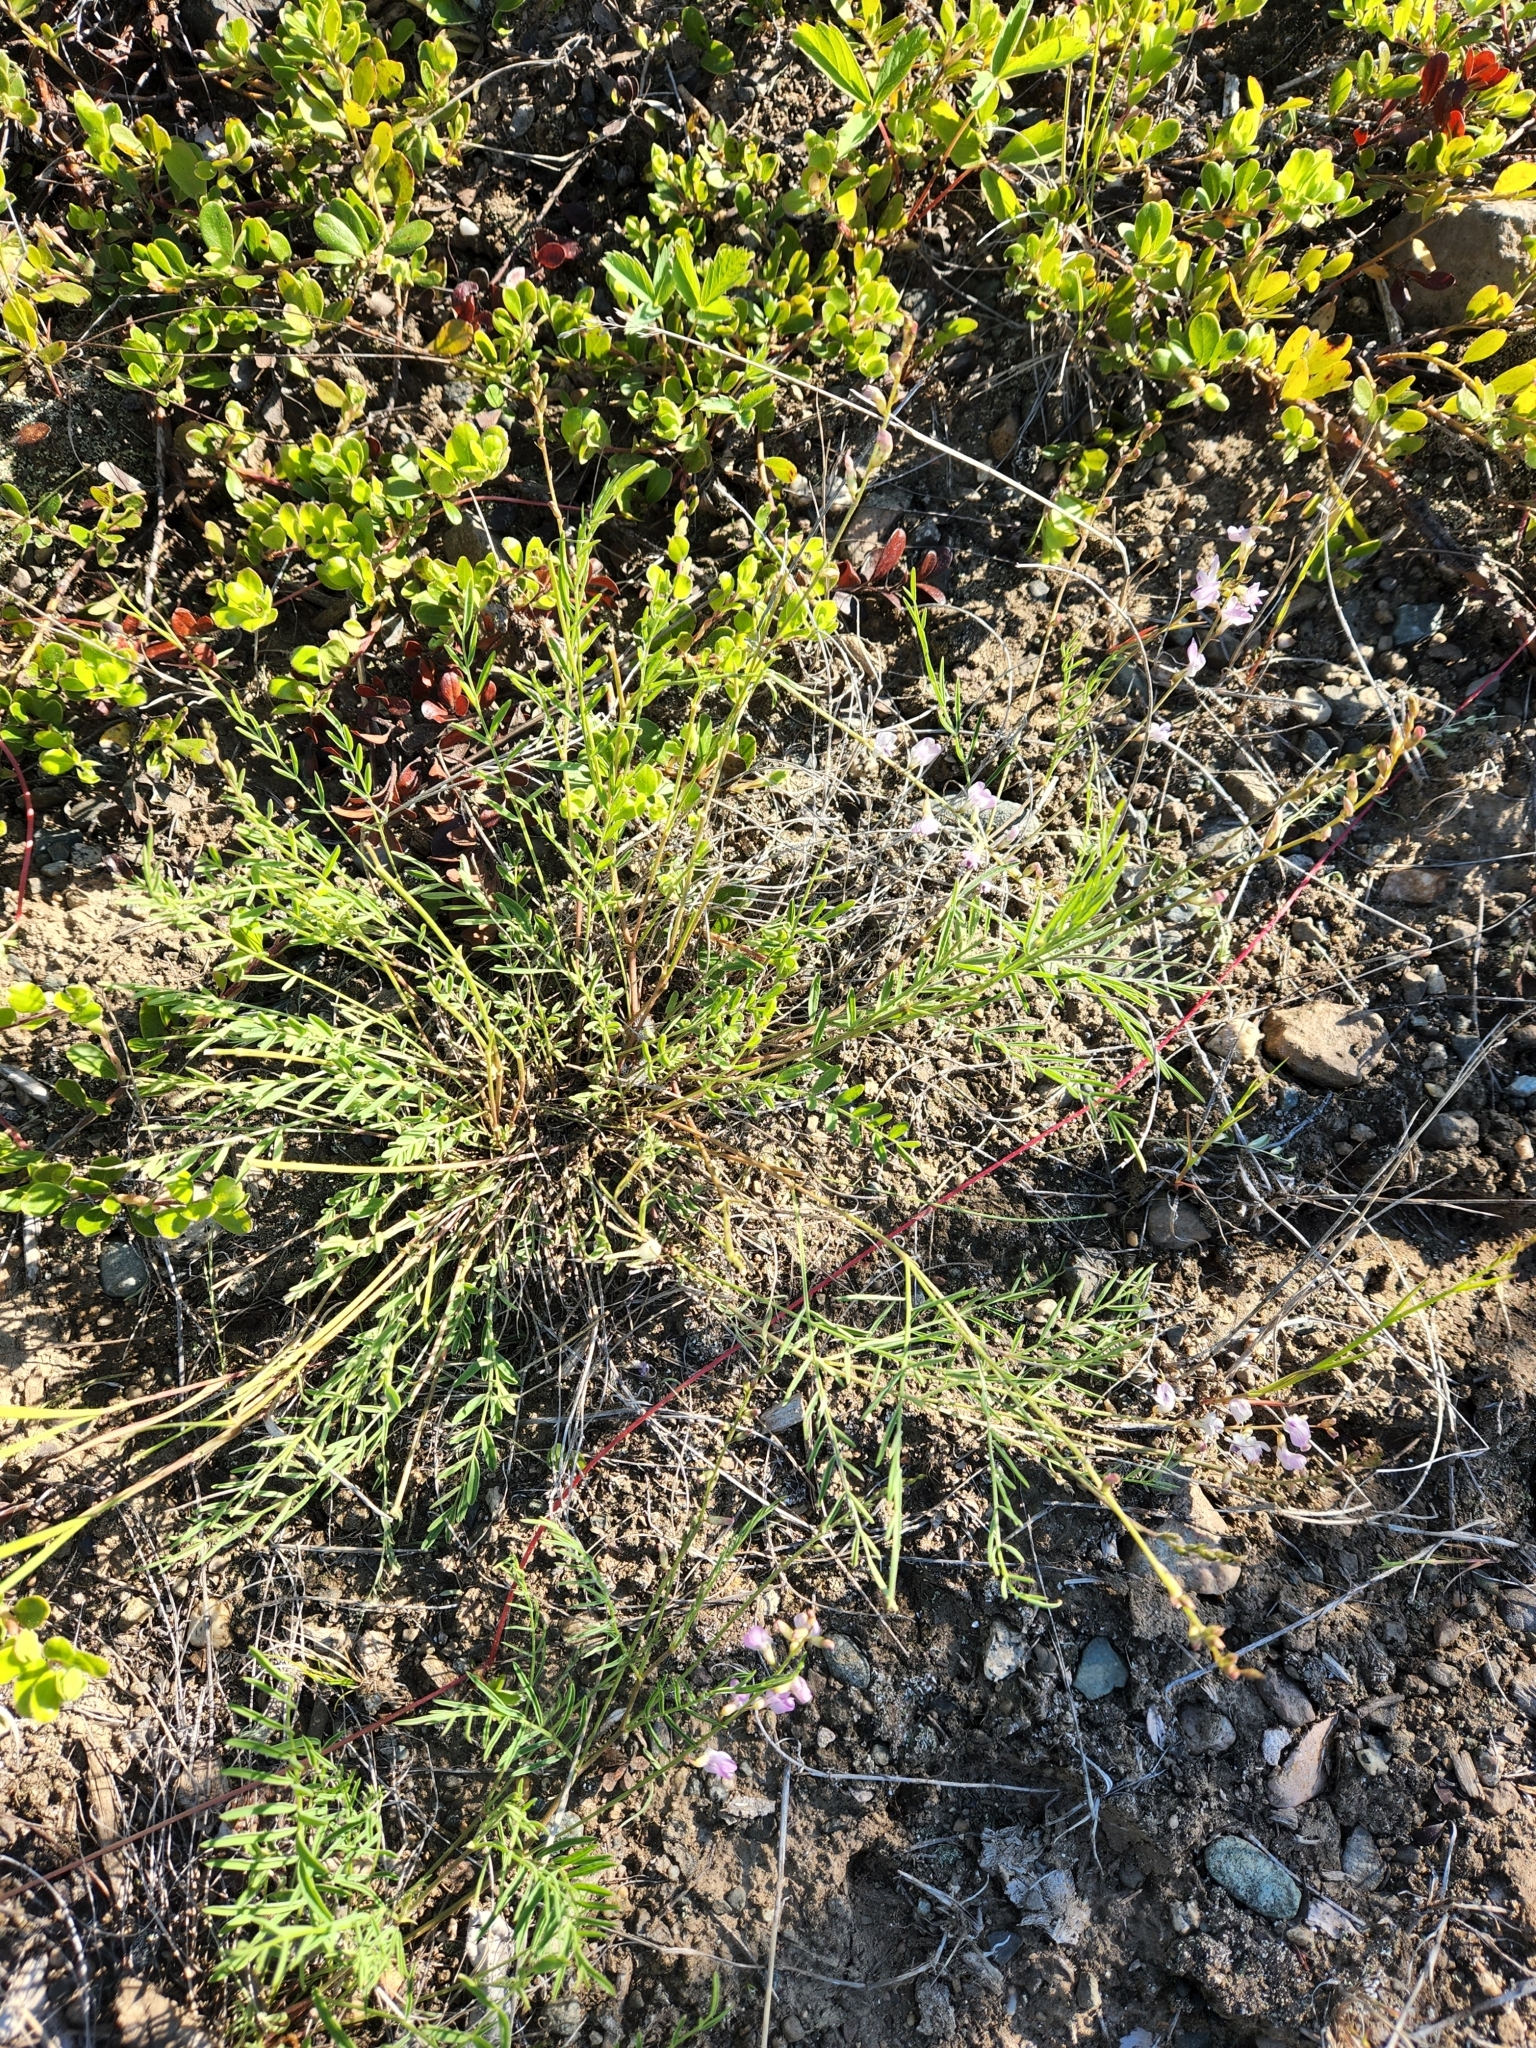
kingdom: Plantae
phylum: Tracheophyta
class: Magnoliopsida
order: Fabales
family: Fabaceae
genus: Astragalus
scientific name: Astragalus miser
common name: Timber milkvetch
